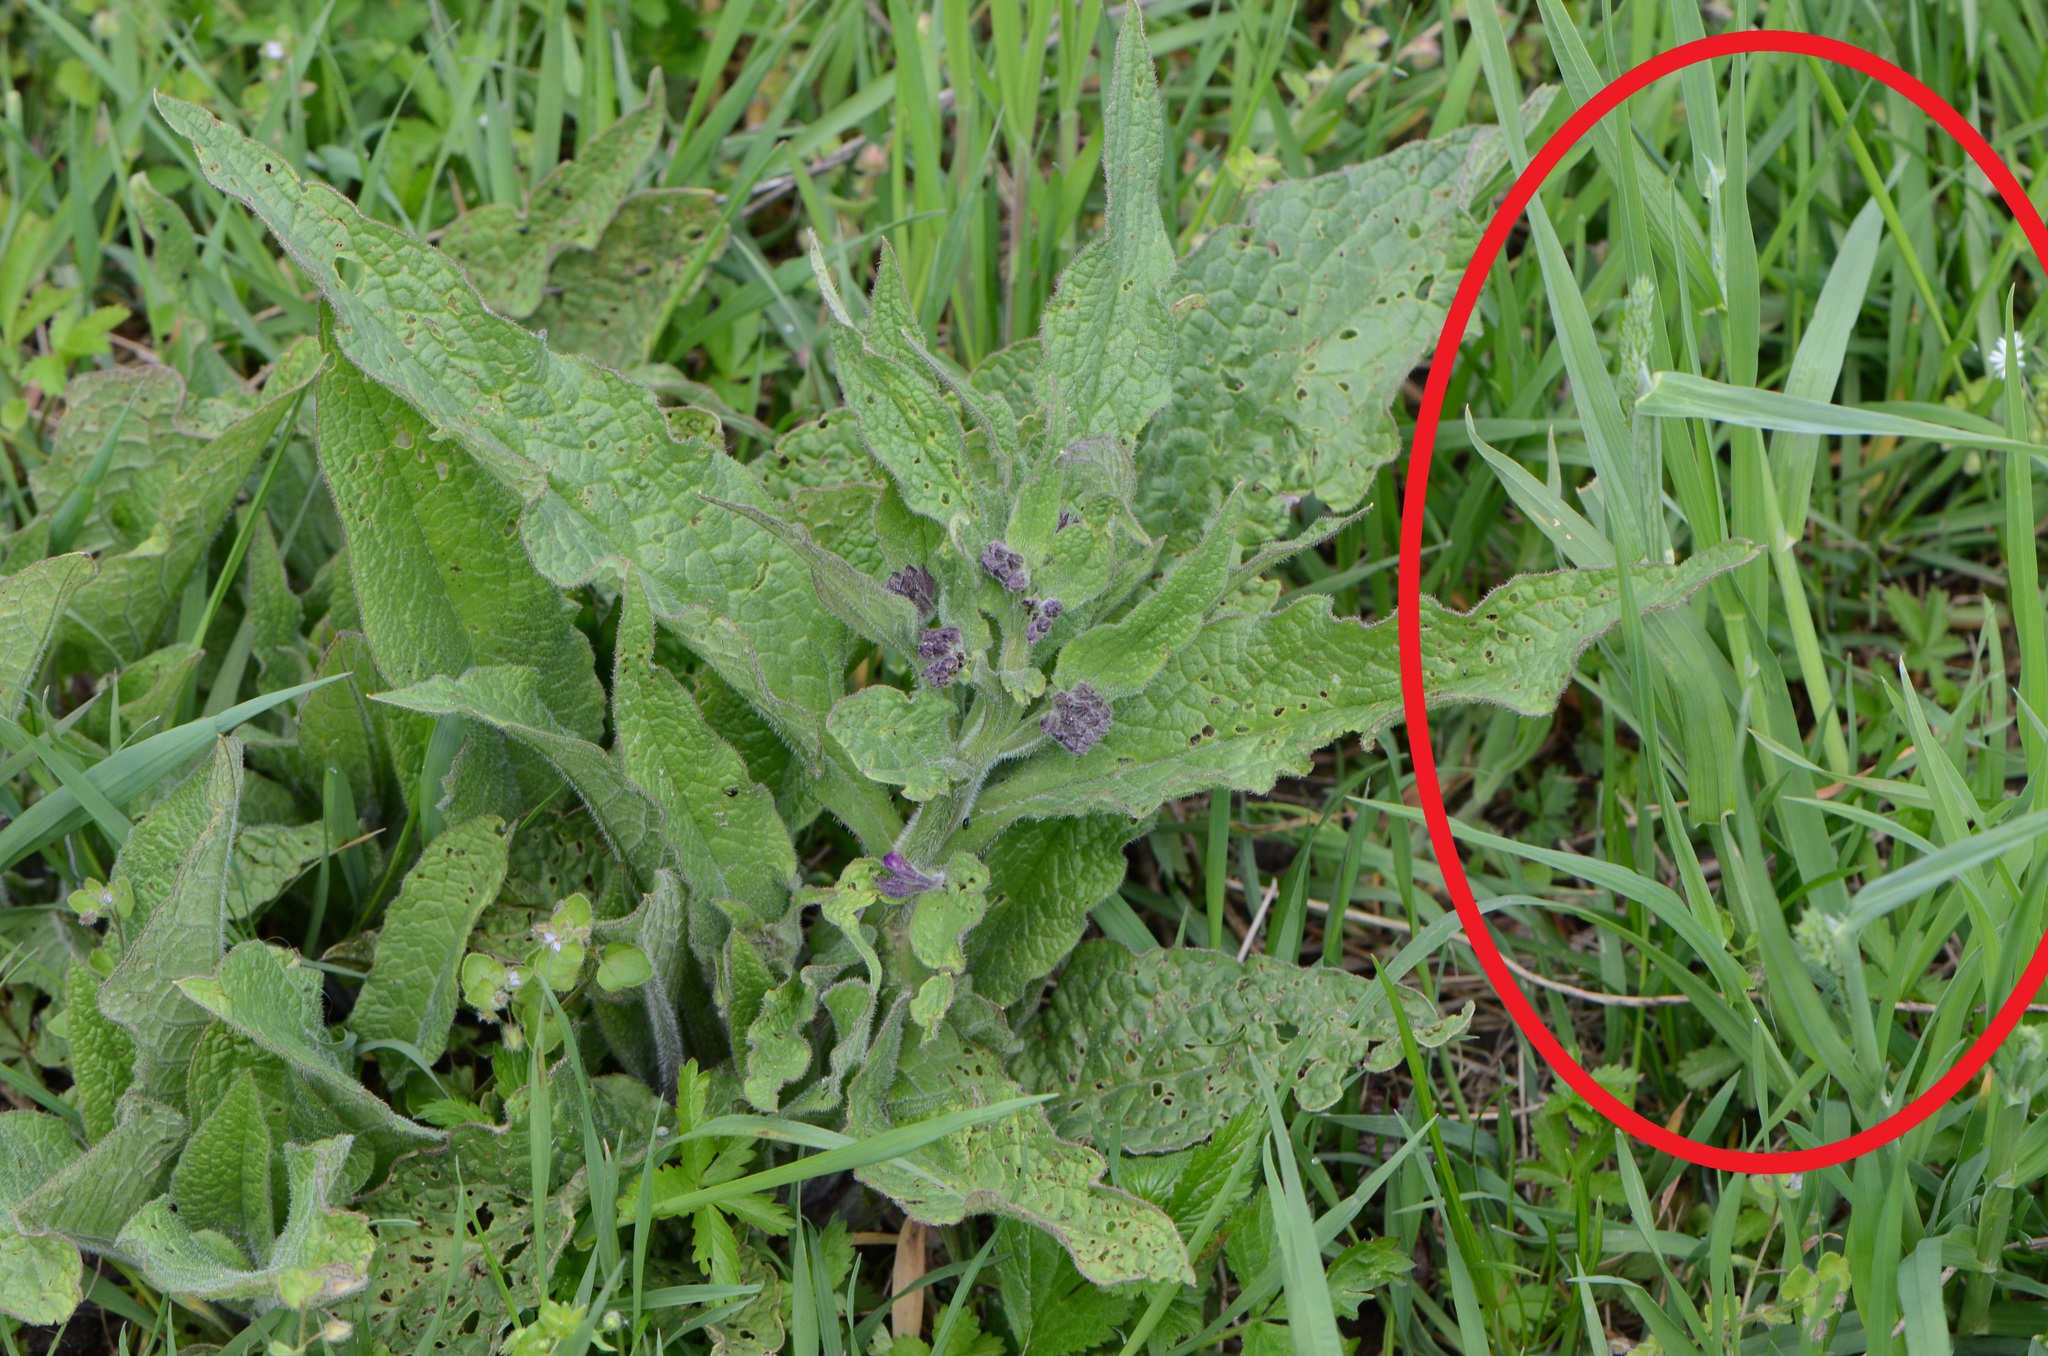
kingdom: Plantae
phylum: Tracheophyta
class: Liliopsida
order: Poales
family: Poaceae
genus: Dactylis
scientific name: Dactylis glomerata
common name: Orchardgrass
